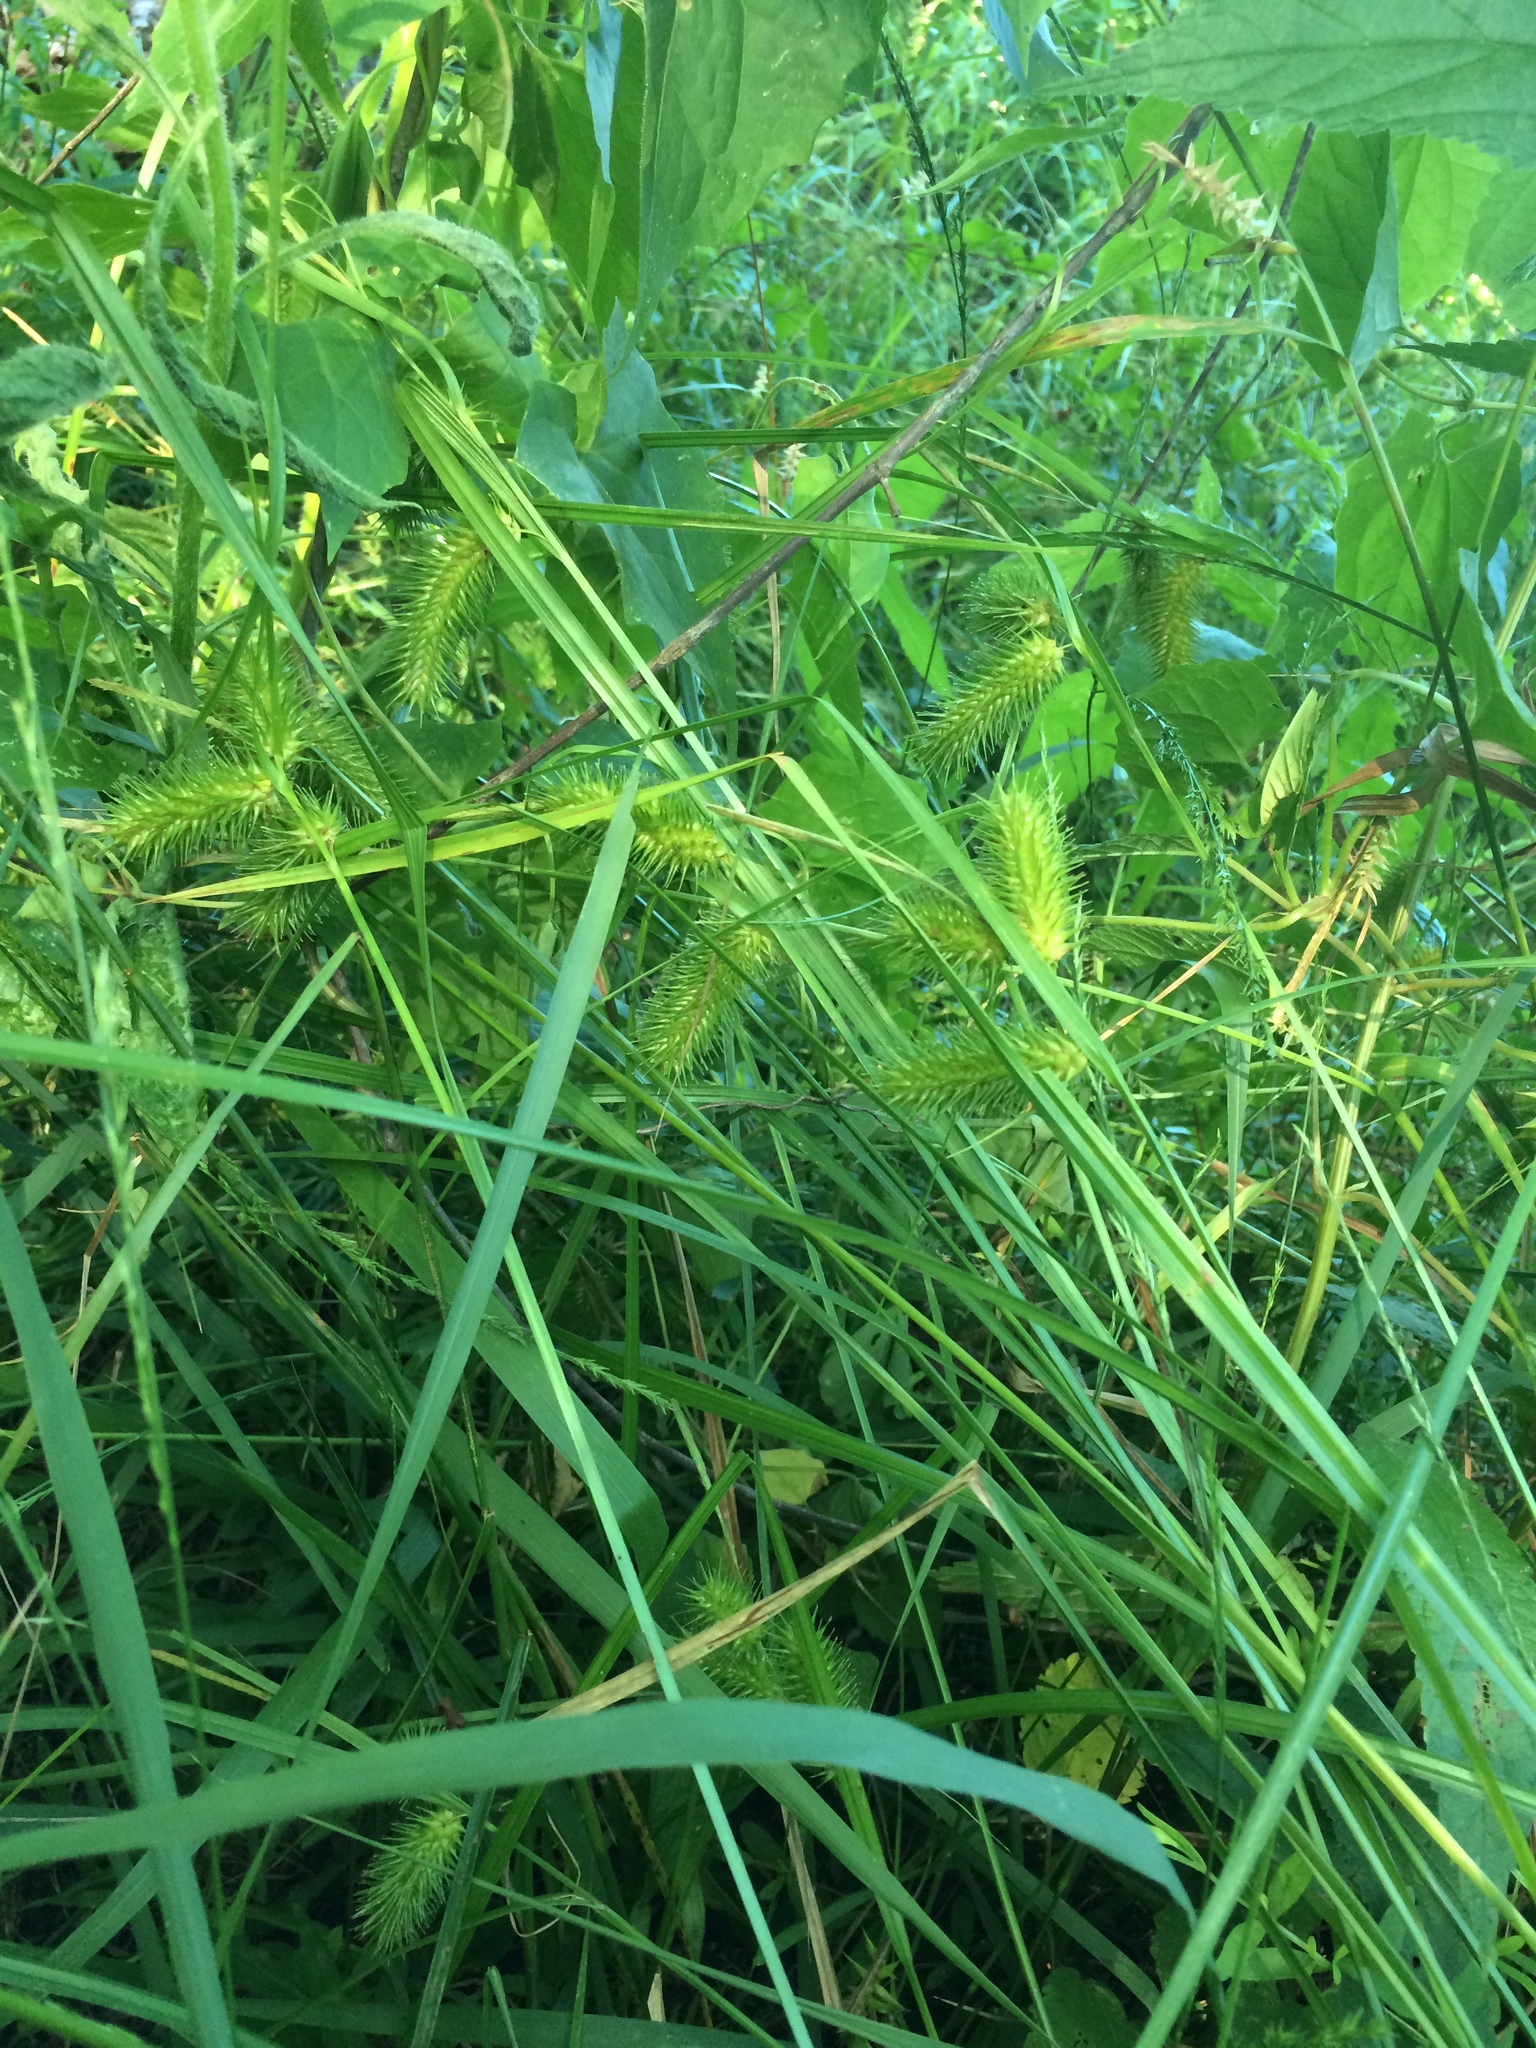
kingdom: Plantae
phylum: Tracheophyta
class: Liliopsida
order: Poales
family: Cyperaceae
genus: Carex
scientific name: Carex lurida
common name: Sallow sedge
